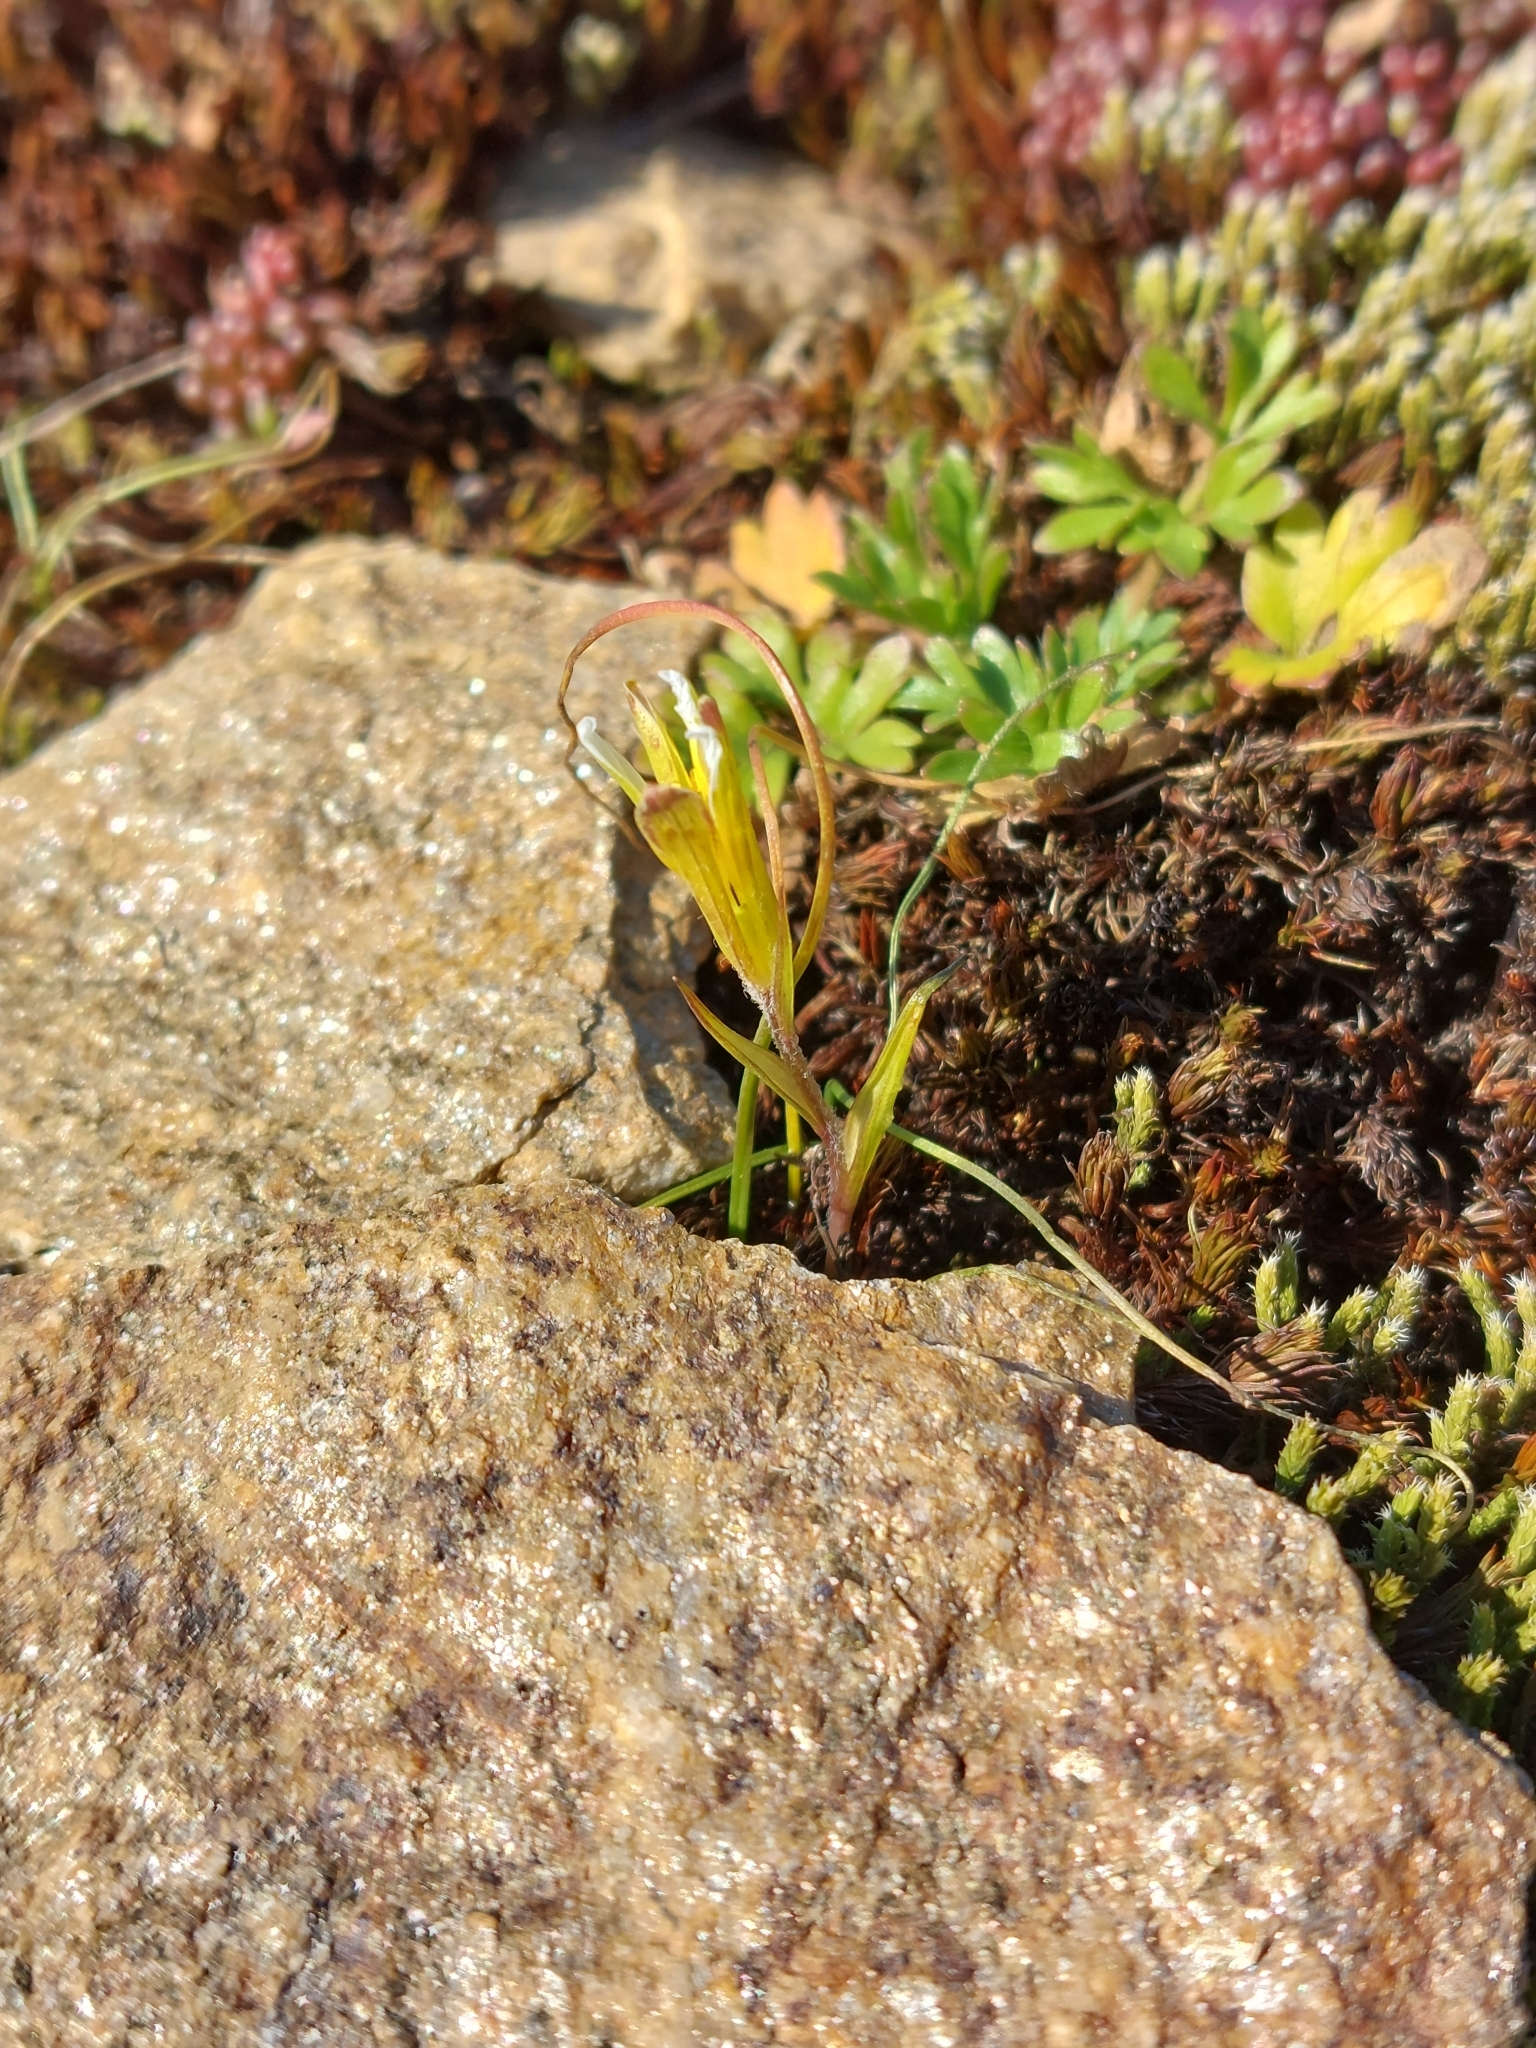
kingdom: Plantae
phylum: Tracheophyta
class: Liliopsida
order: Liliales
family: Liliaceae
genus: Gagea
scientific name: Gagea bohemica
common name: Early star-of-bethlehem
